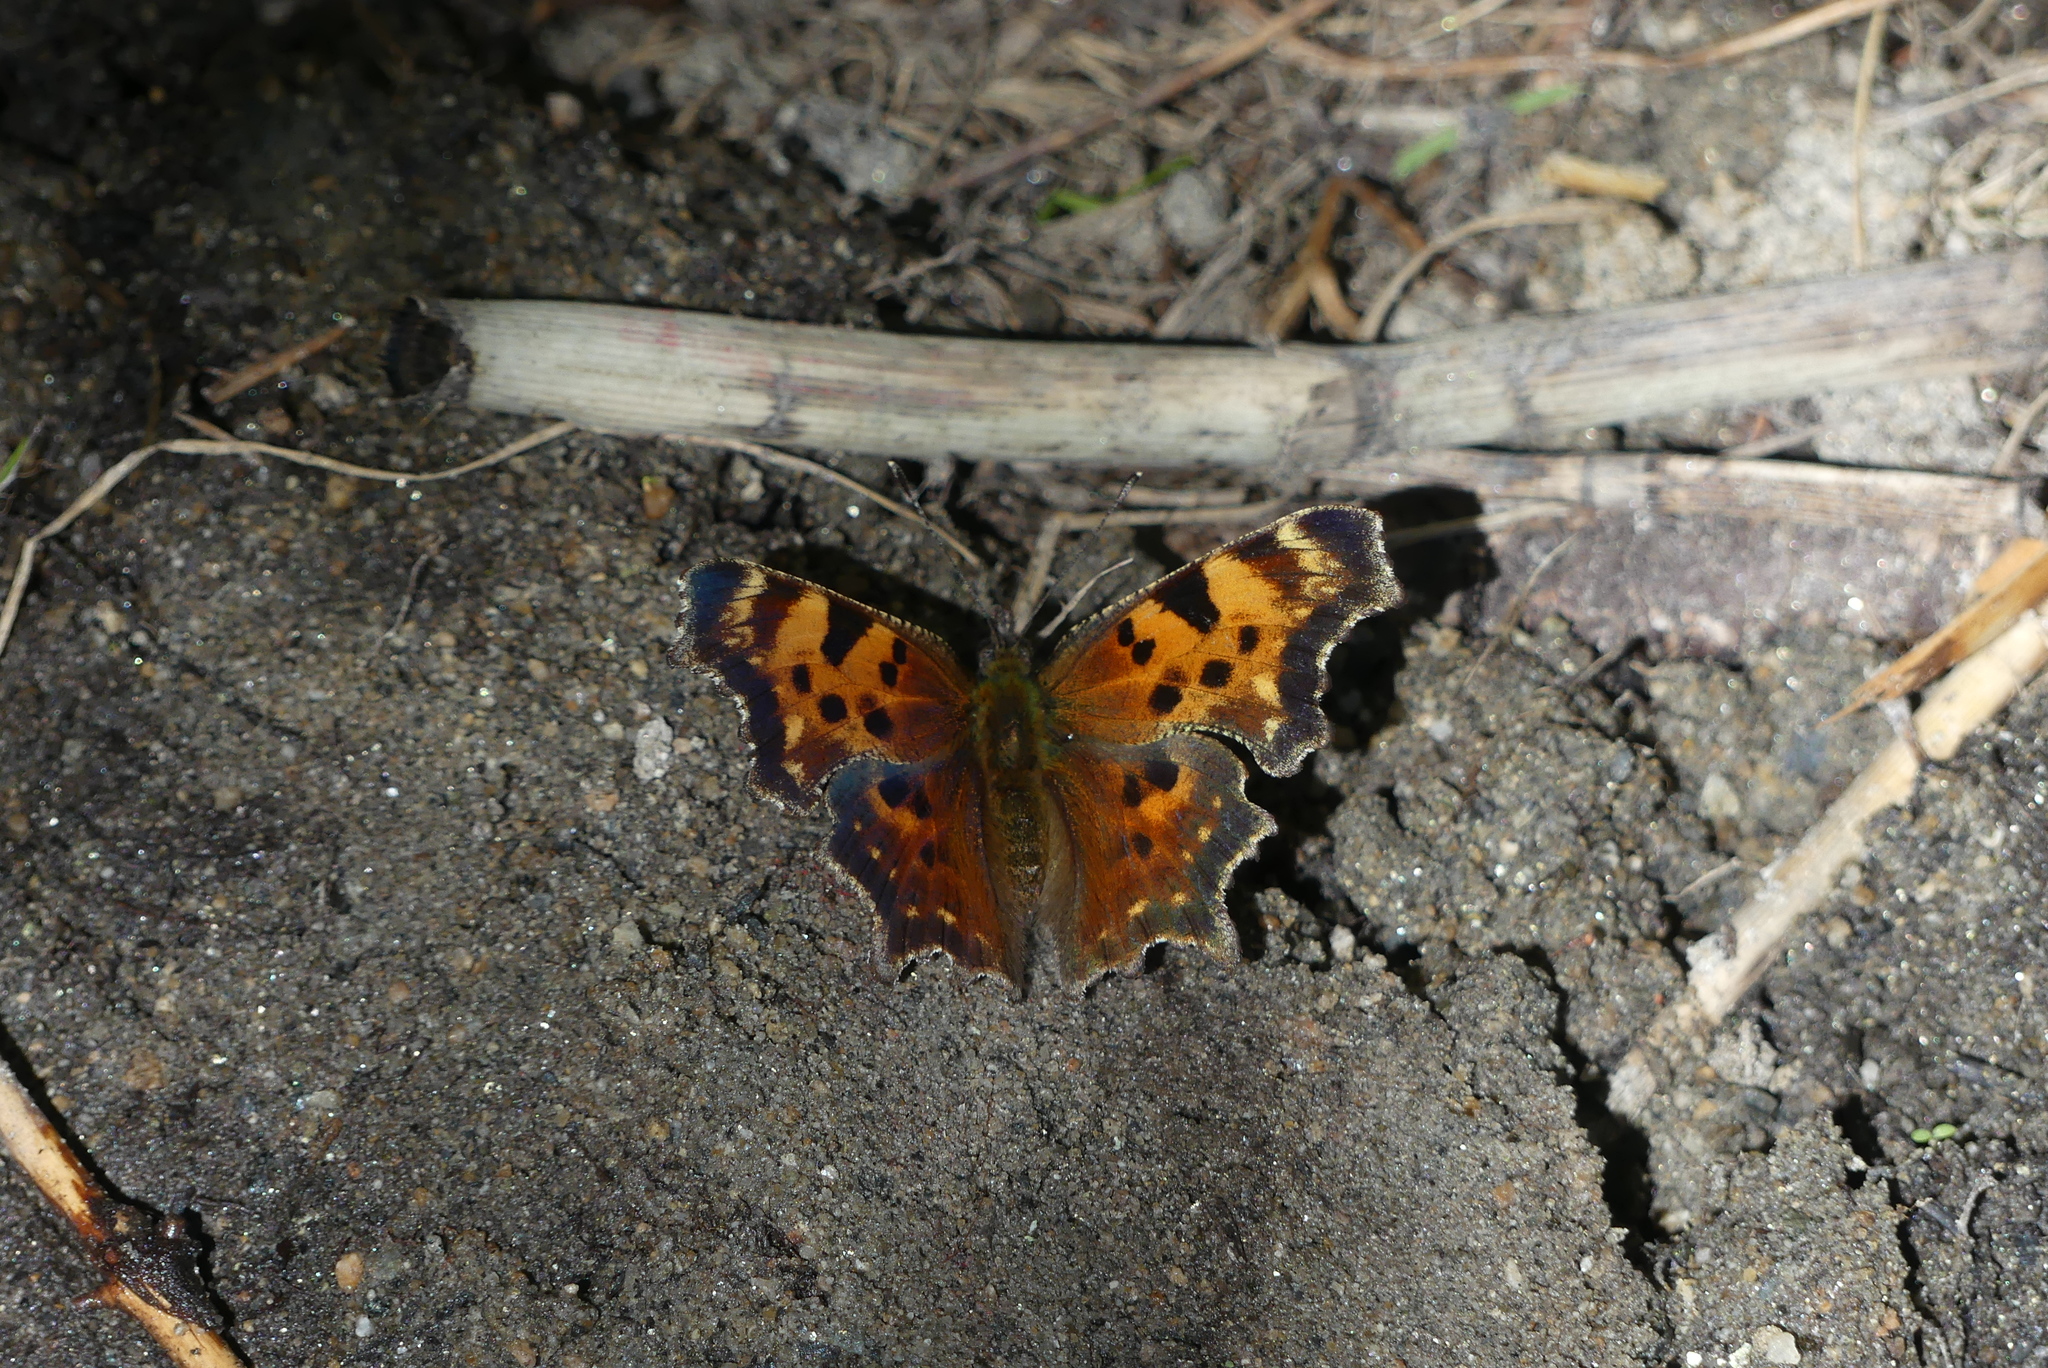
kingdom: Animalia
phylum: Arthropoda
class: Insecta
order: Lepidoptera
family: Nymphalidae
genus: Polygonia
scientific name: Polygonia faunus
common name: Green comma
